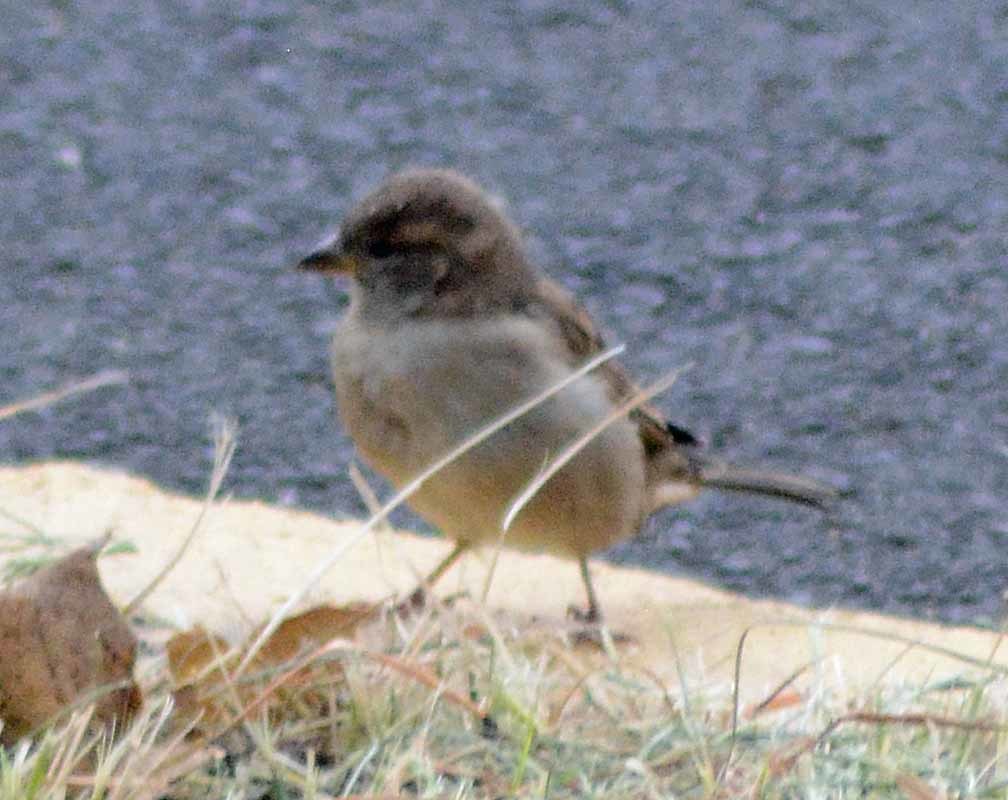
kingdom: Animalia
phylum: Chordata
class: Aves
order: Passeriformes
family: Passeridae
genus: Passer
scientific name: Passer domesticus
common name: House sparrow
